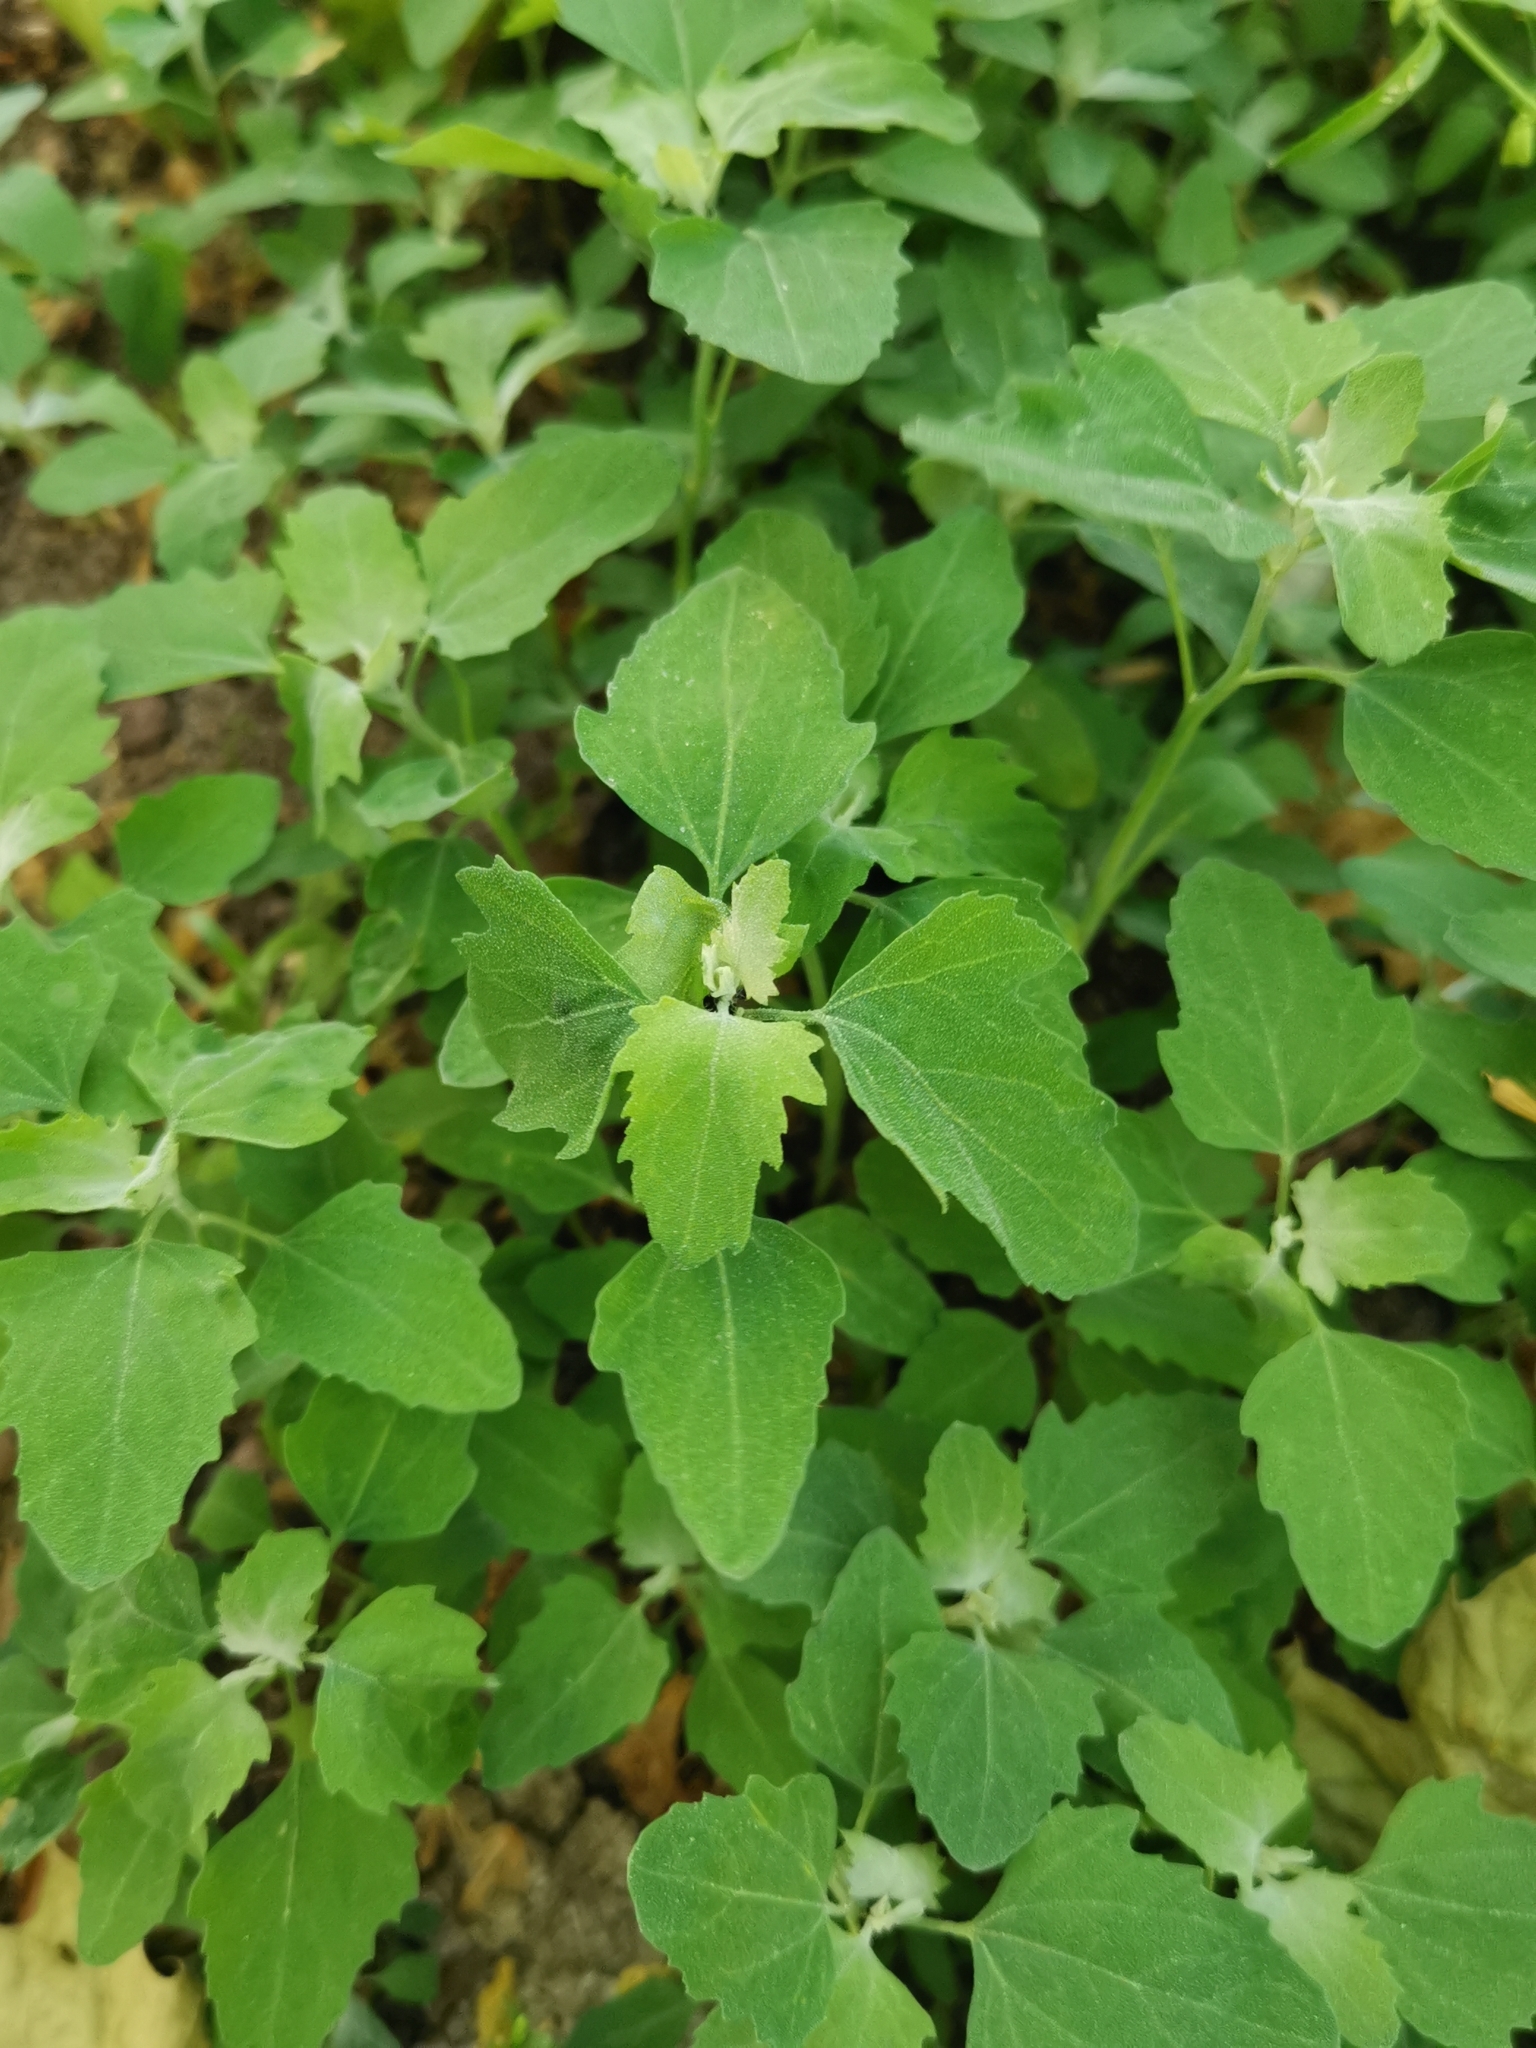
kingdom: Plantae
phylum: Tracheophyta
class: Magnoliopsida
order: Caryophyllales
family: Amaranthaceae
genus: Chenopodium
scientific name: Chenopodium album
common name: Fat-hen
